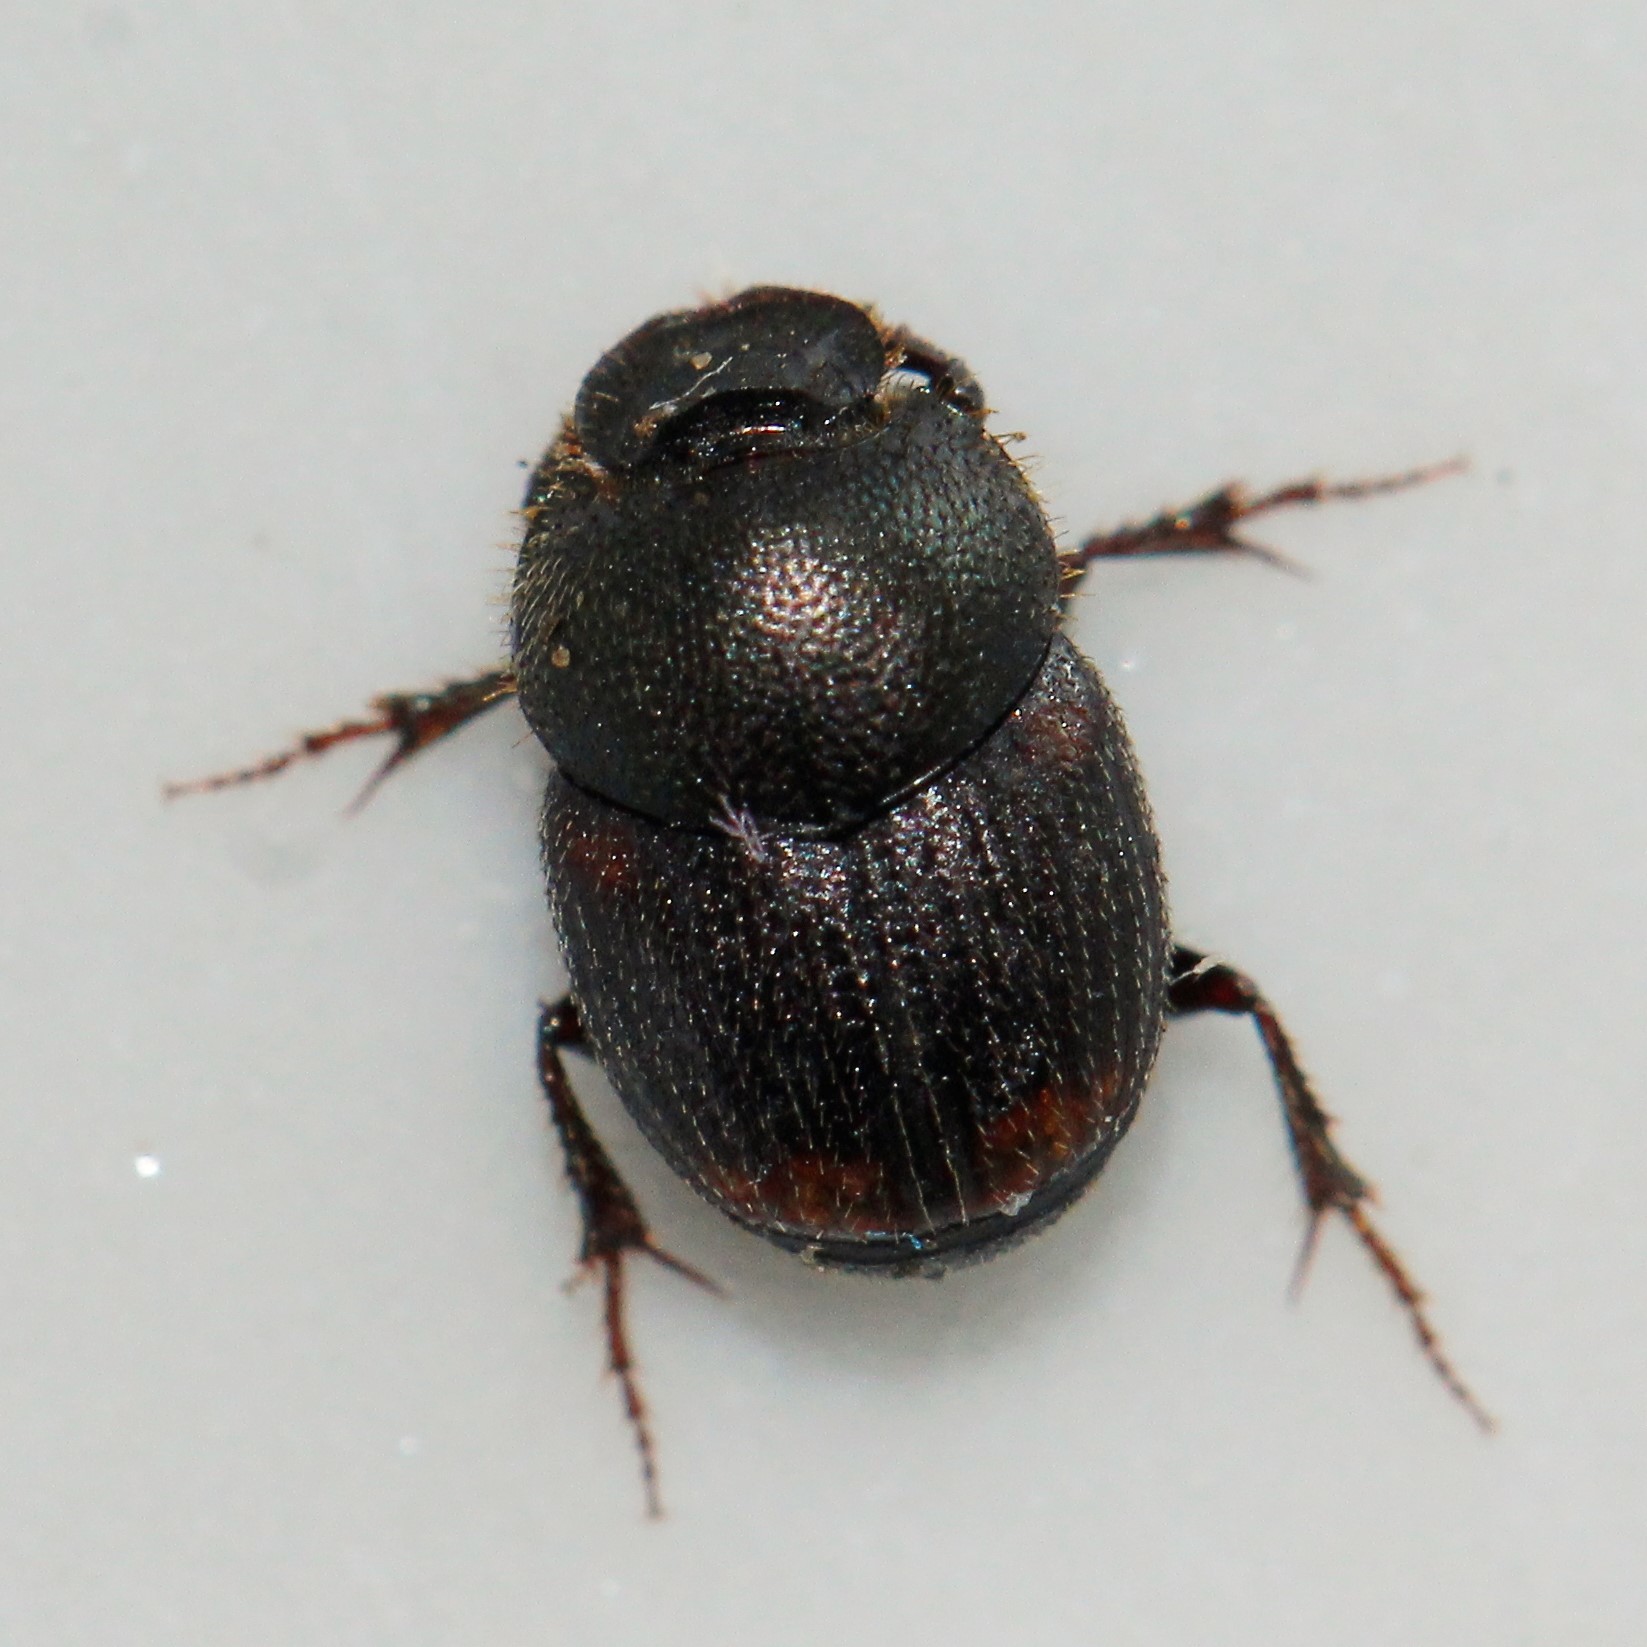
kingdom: Animalia
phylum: Arthropoda
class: Insecta
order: Coleoptera
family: Scarabaeidae
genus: Onthophagus
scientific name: Onthophagus furcatus
